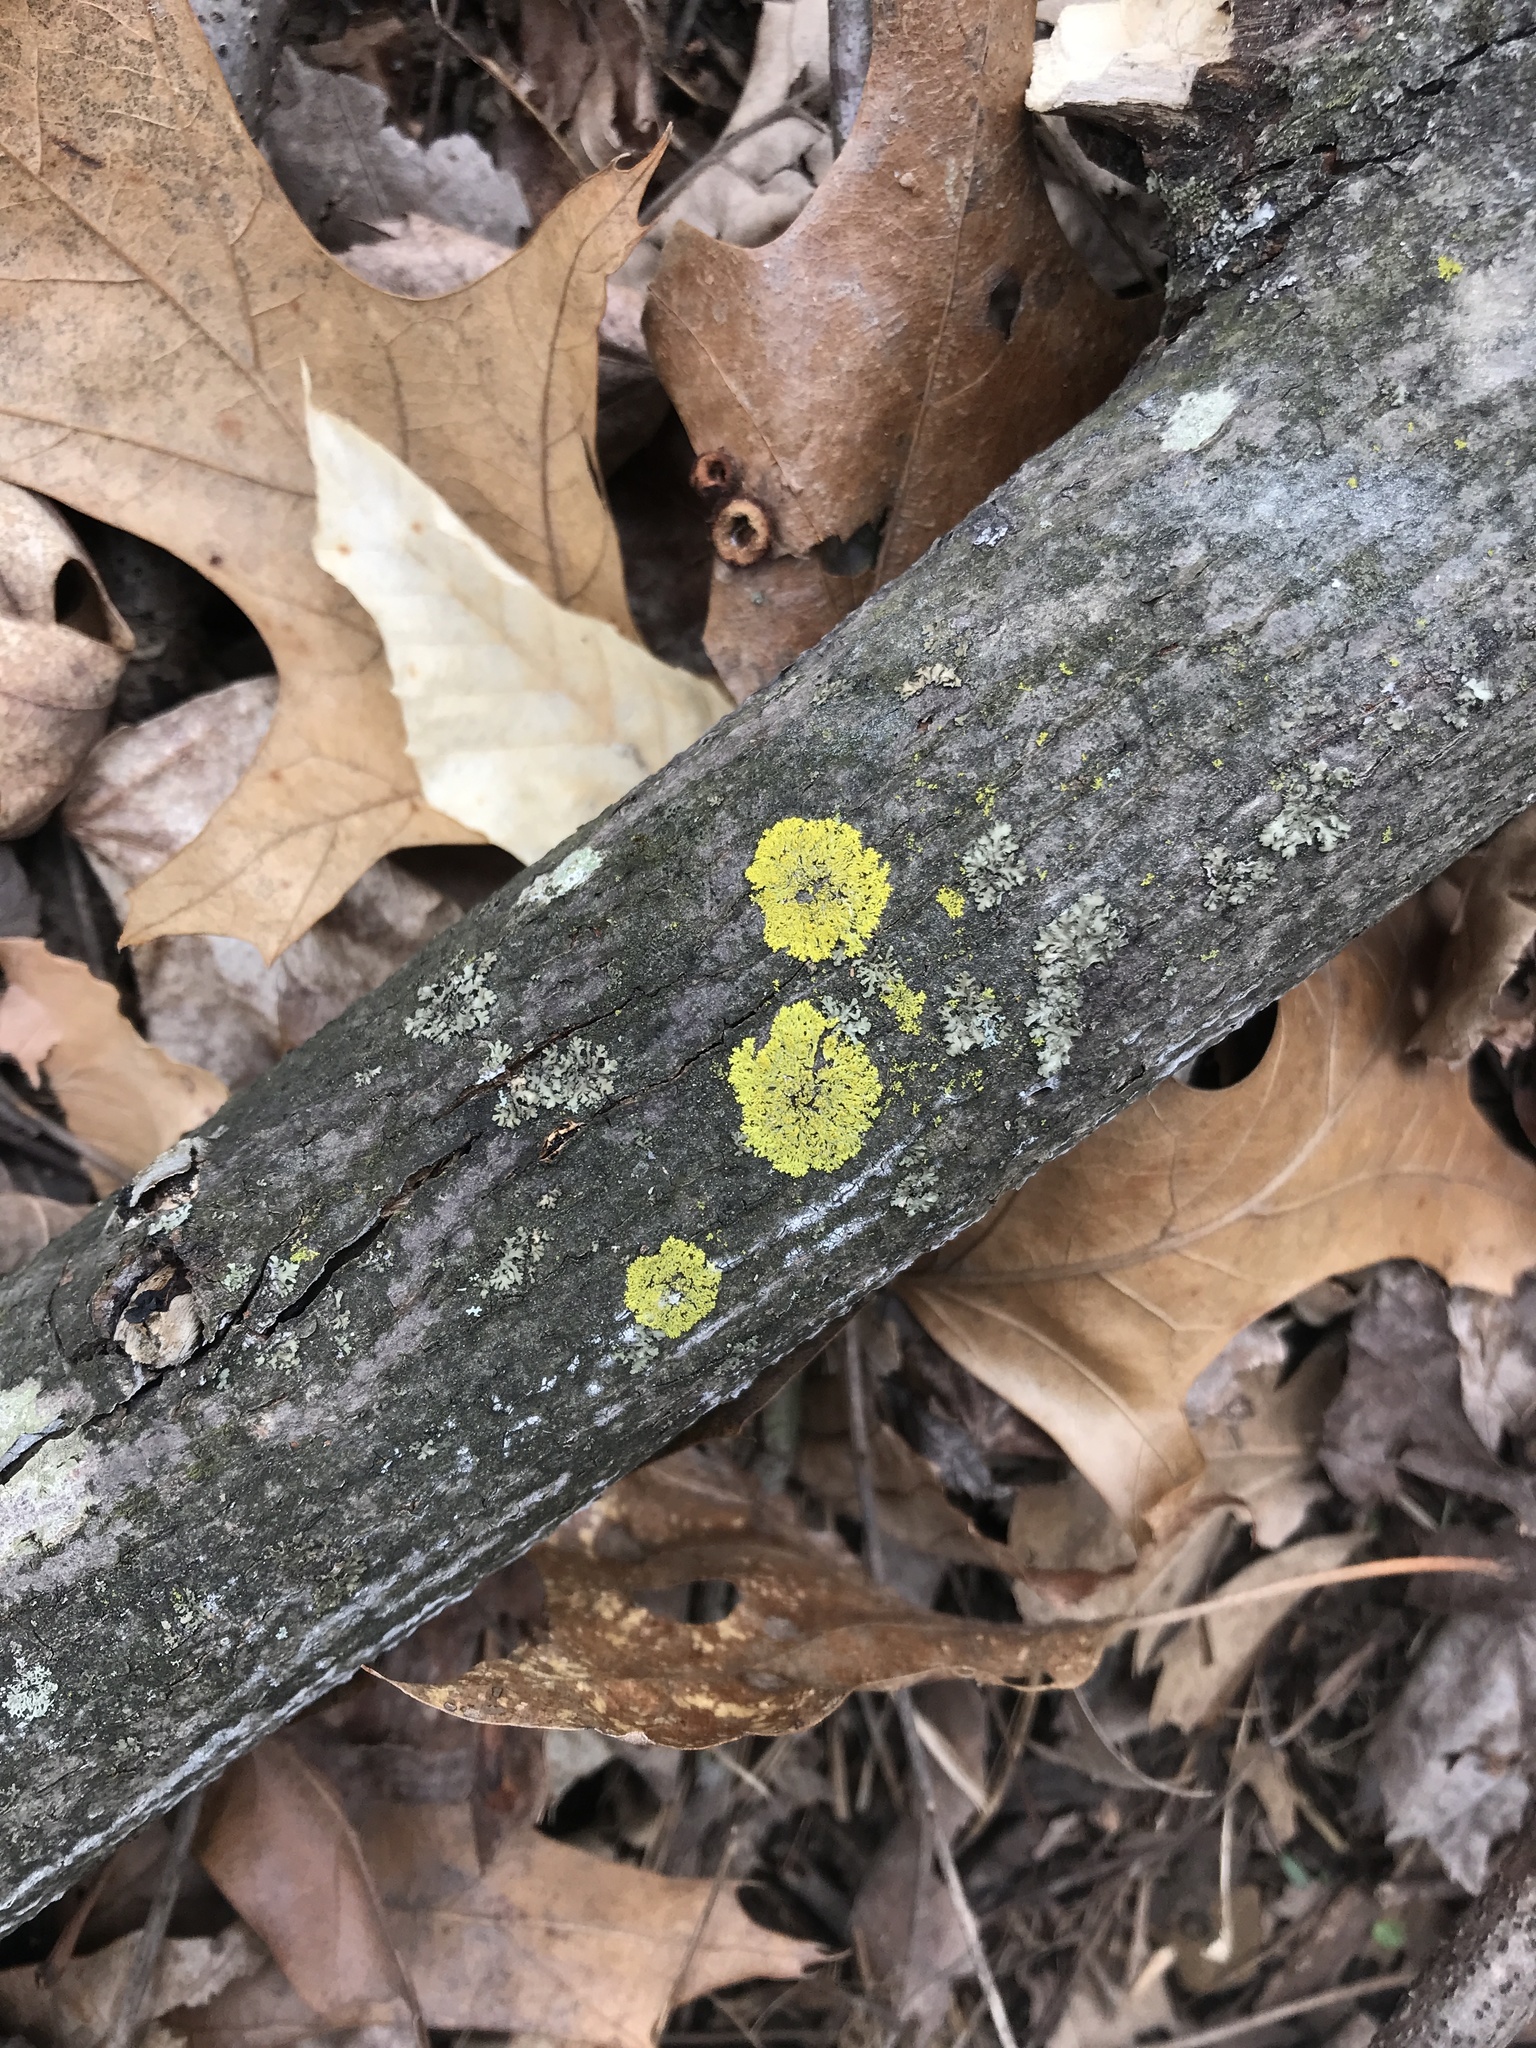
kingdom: Fungi
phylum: Ascomycota
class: Candelariomycetes
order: Candelariales
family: Candelariaceae
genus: Candelaria
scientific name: Candelaria concolor
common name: Candleflame lichen
